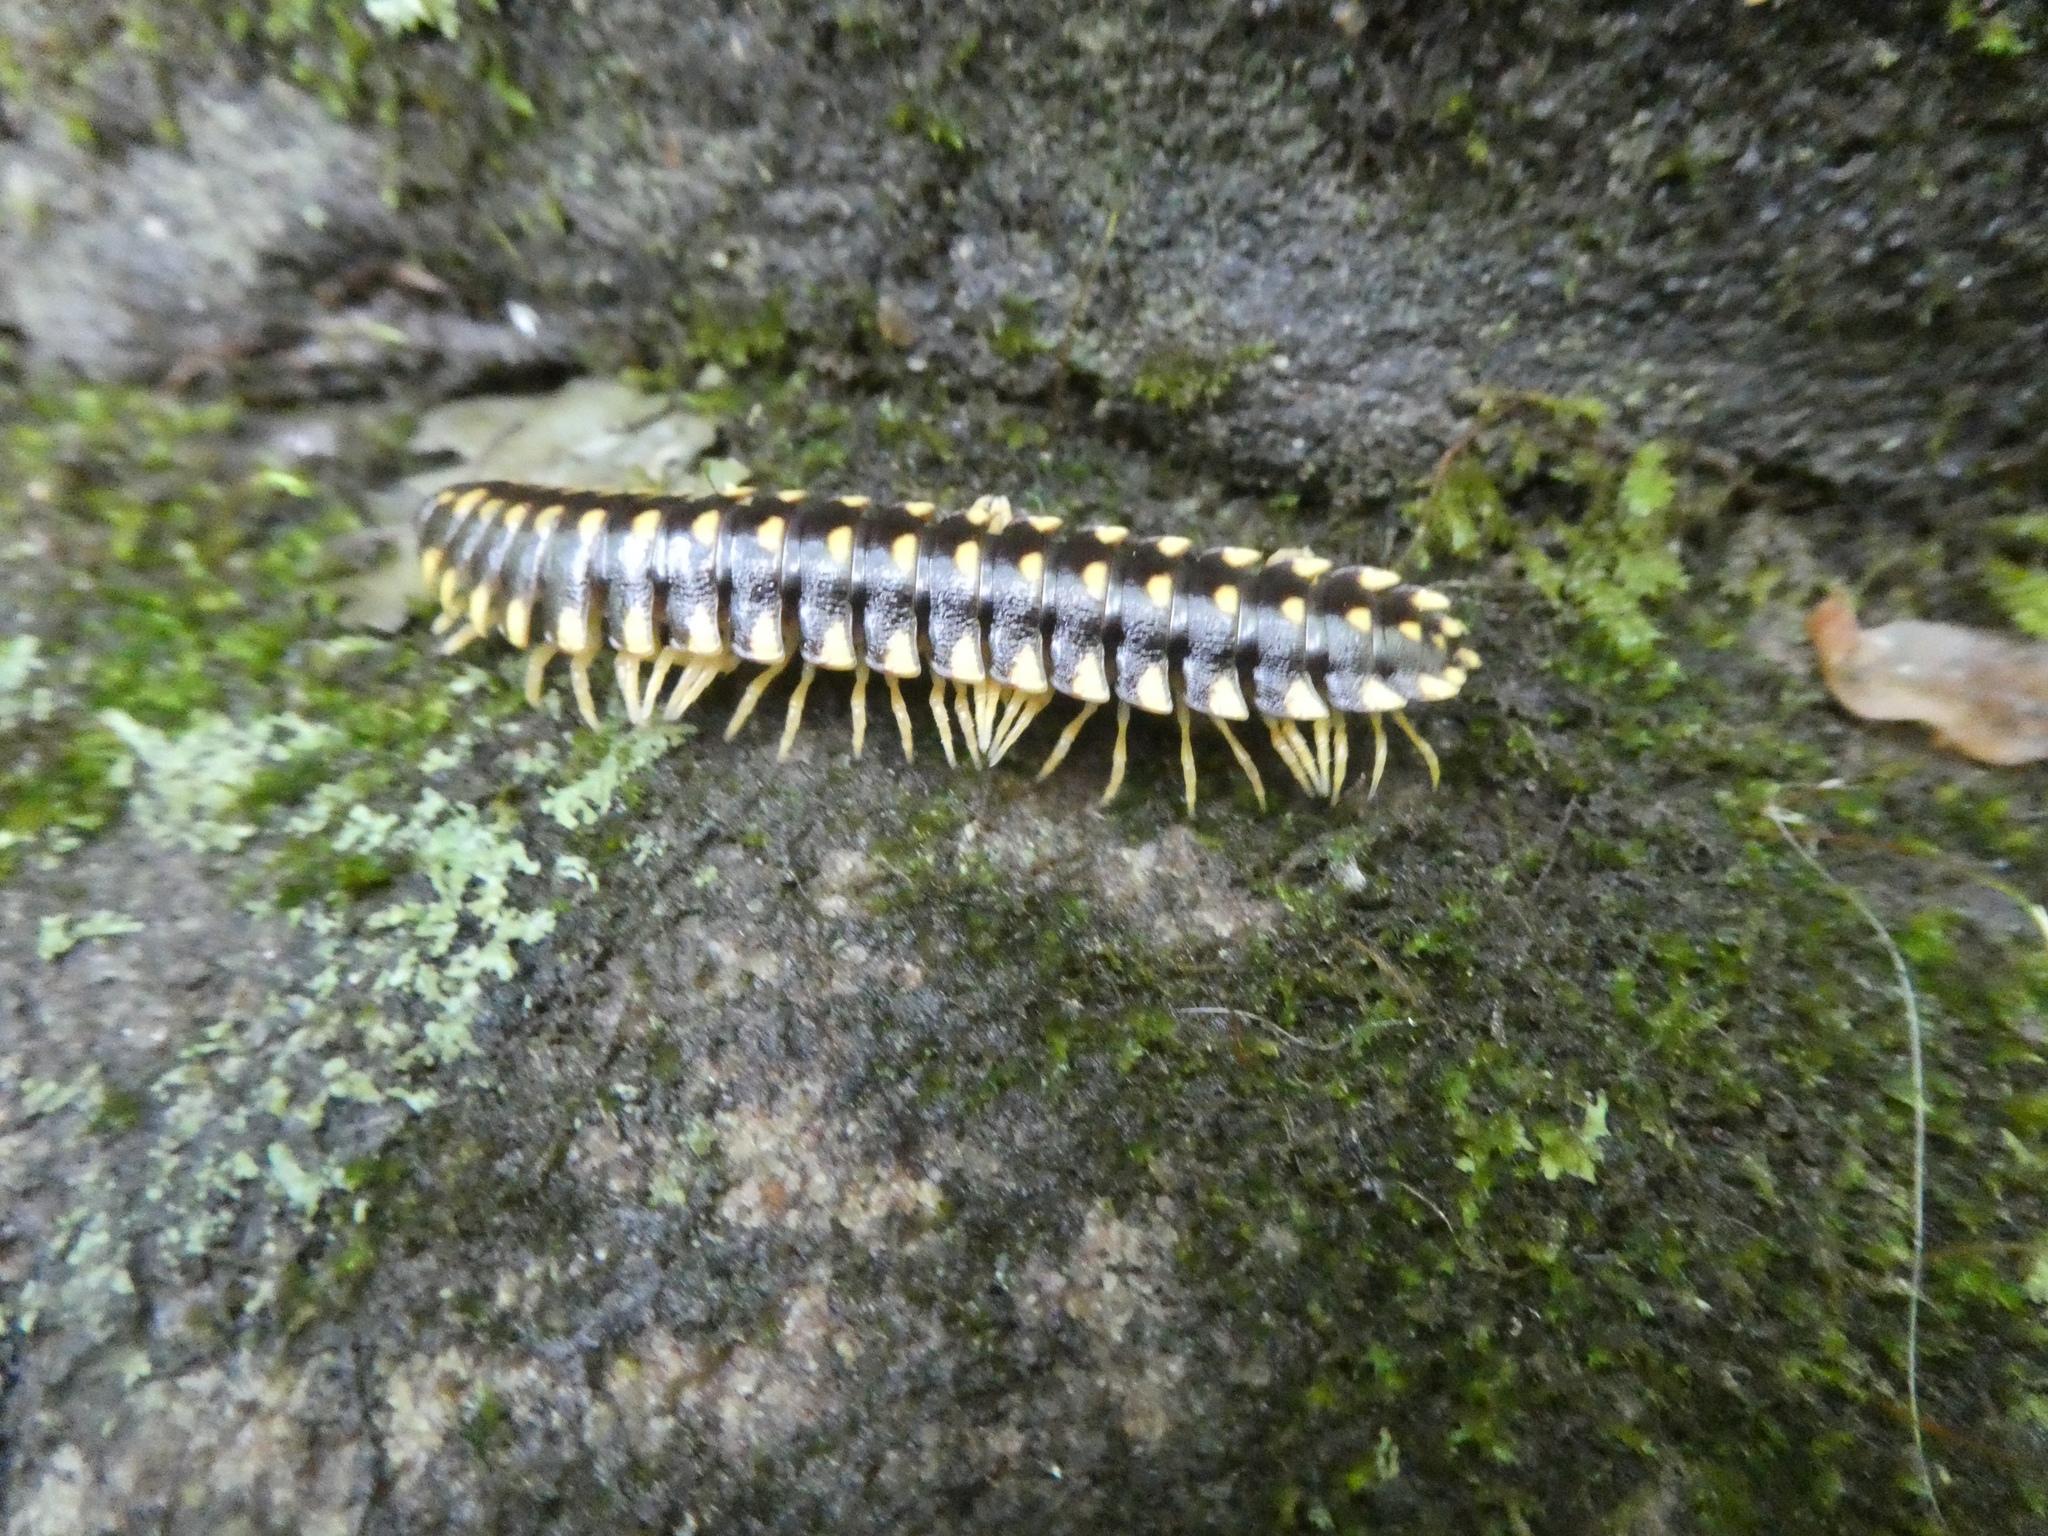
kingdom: Animalia
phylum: Arthropoda
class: Diplopoda
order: Polydesmida
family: Xystodesmidae
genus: Cherokia
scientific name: Cherokia georgiana
